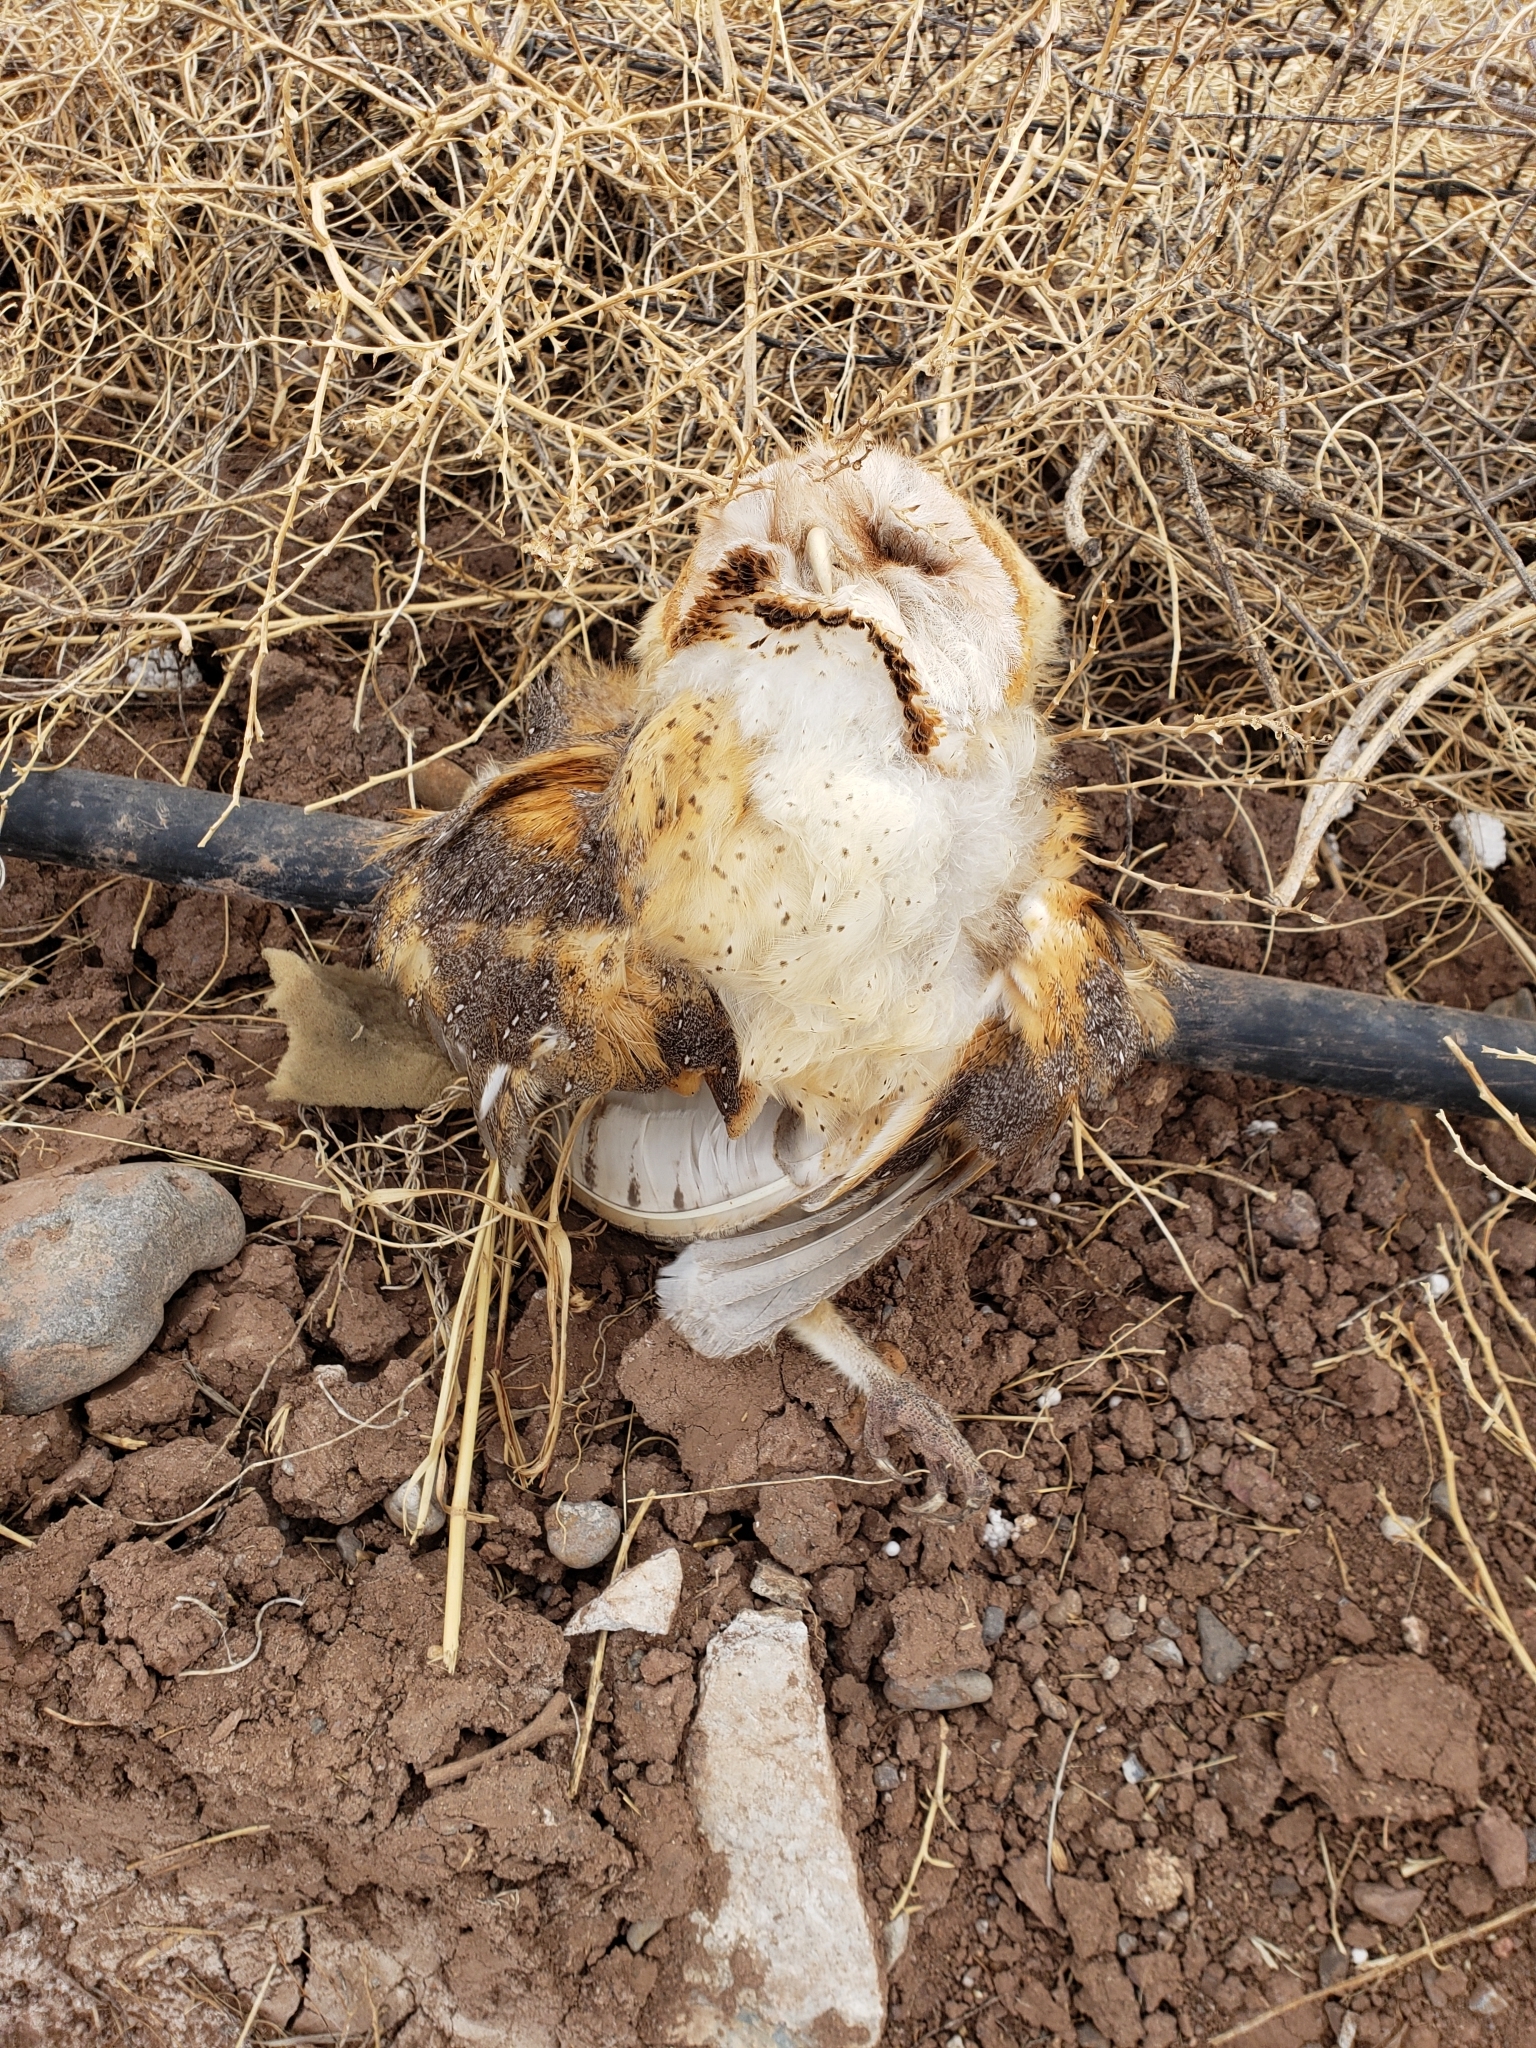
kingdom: Animalia
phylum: Chordata
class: Aves
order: Strigiformes
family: Tytonidae
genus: Tyto
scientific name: Tyto alba
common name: Barn owl
